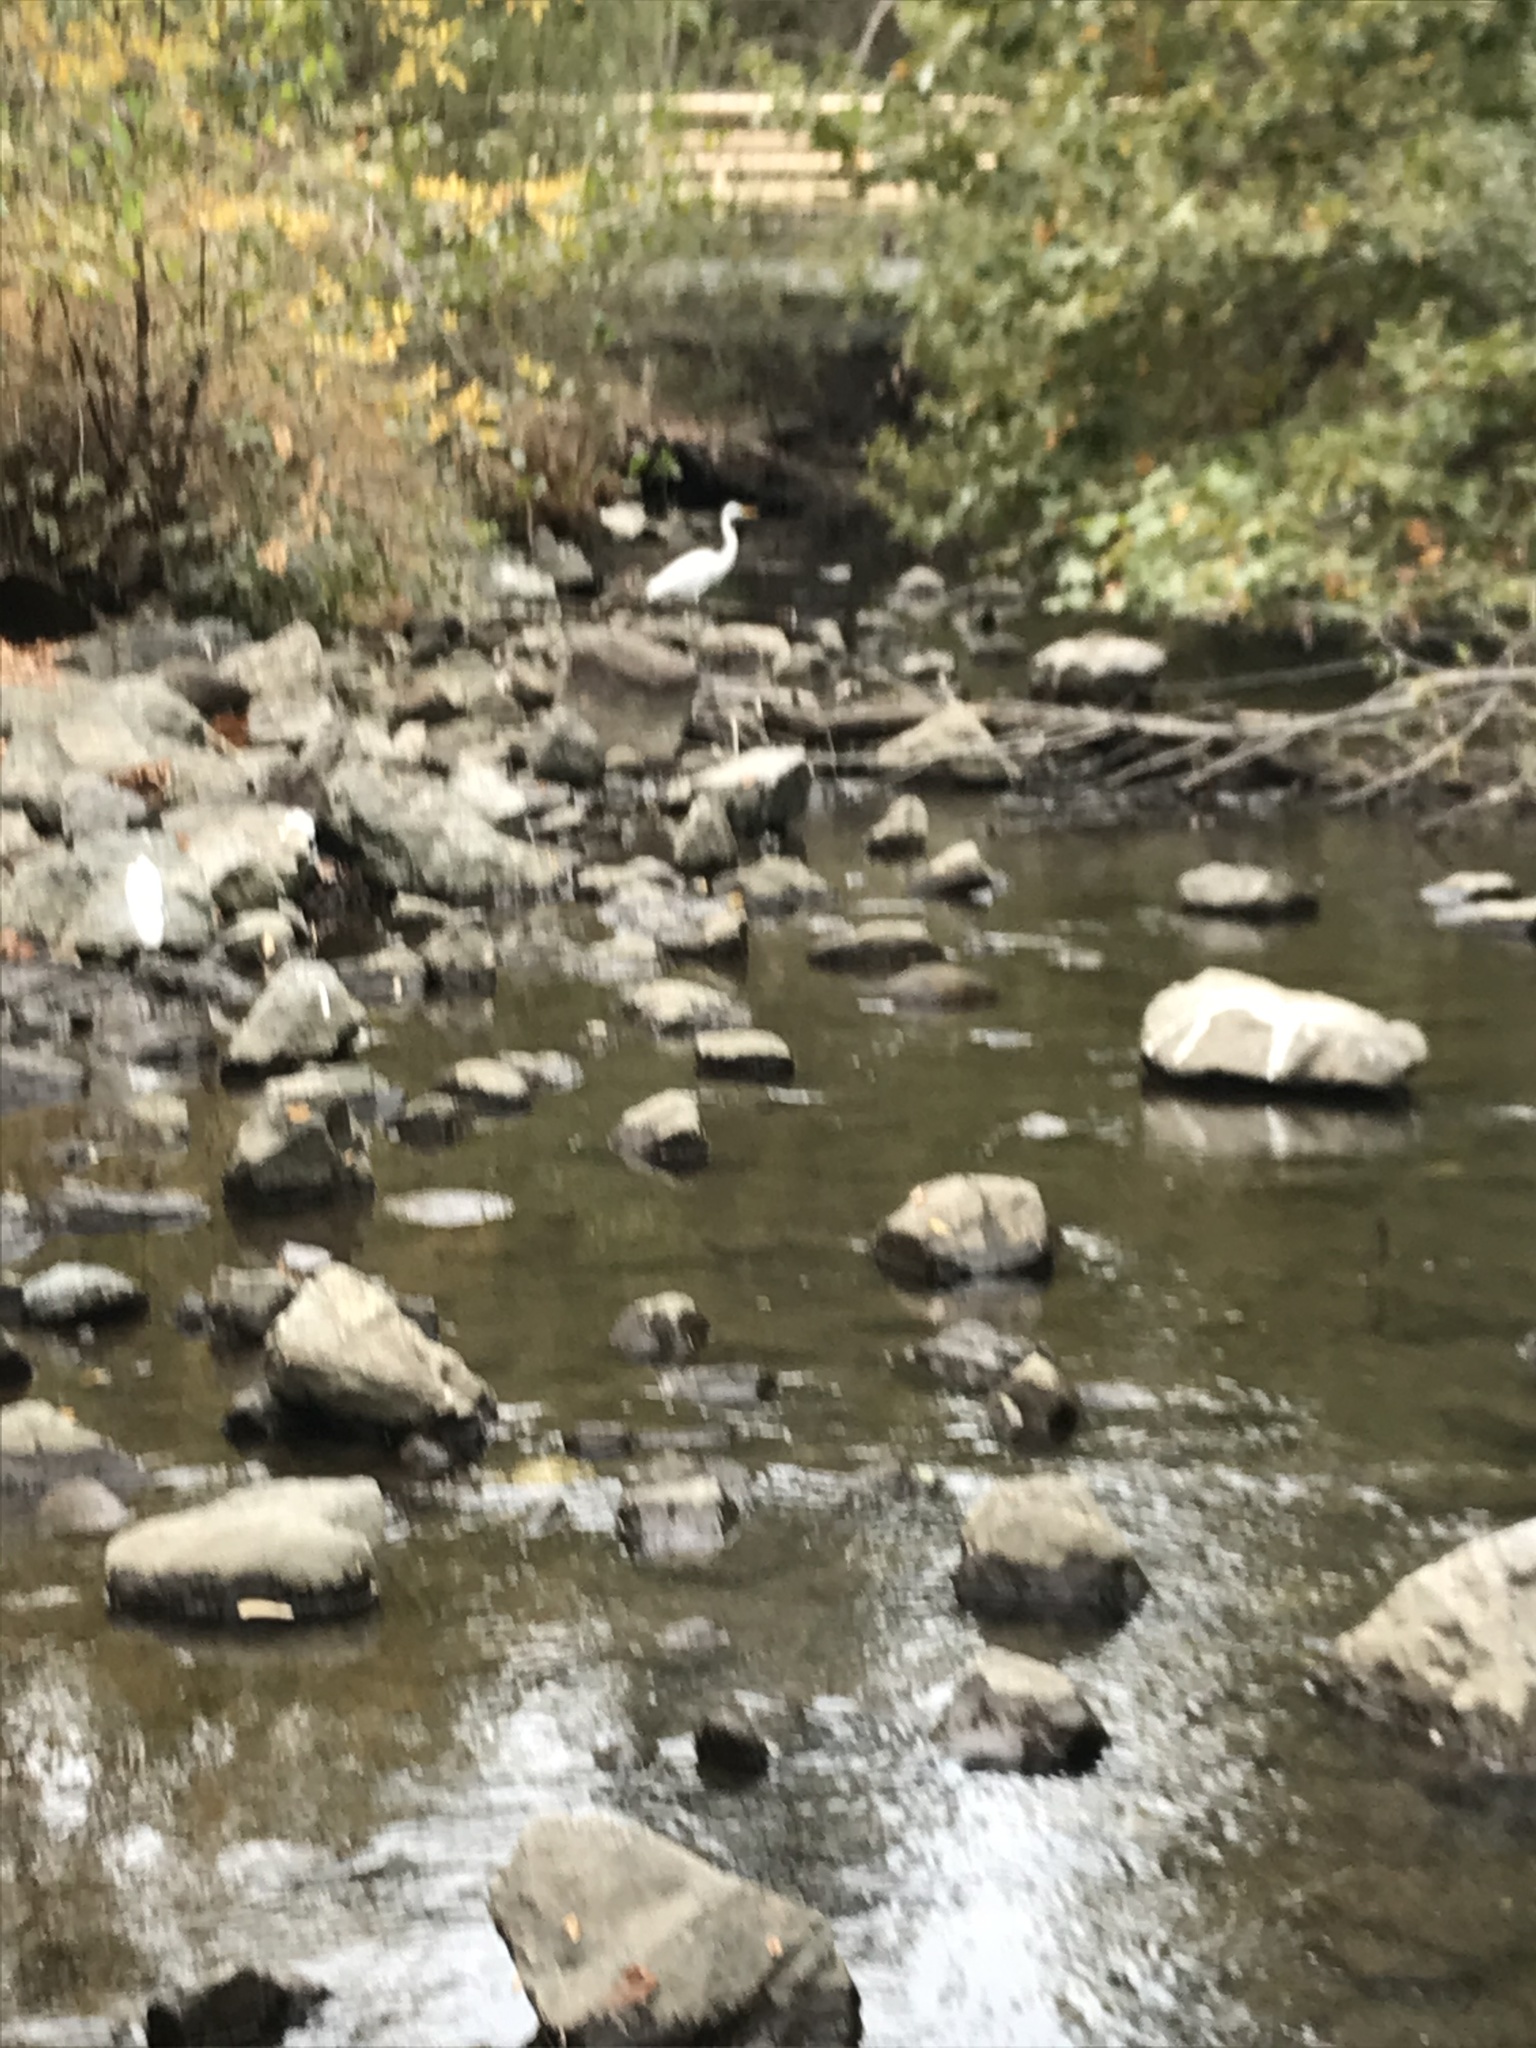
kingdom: Animalia
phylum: Chordata
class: Aves
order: Pelecaniformes
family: Ardeidae
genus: Ardea
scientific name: Ardea alba
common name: Great egret
